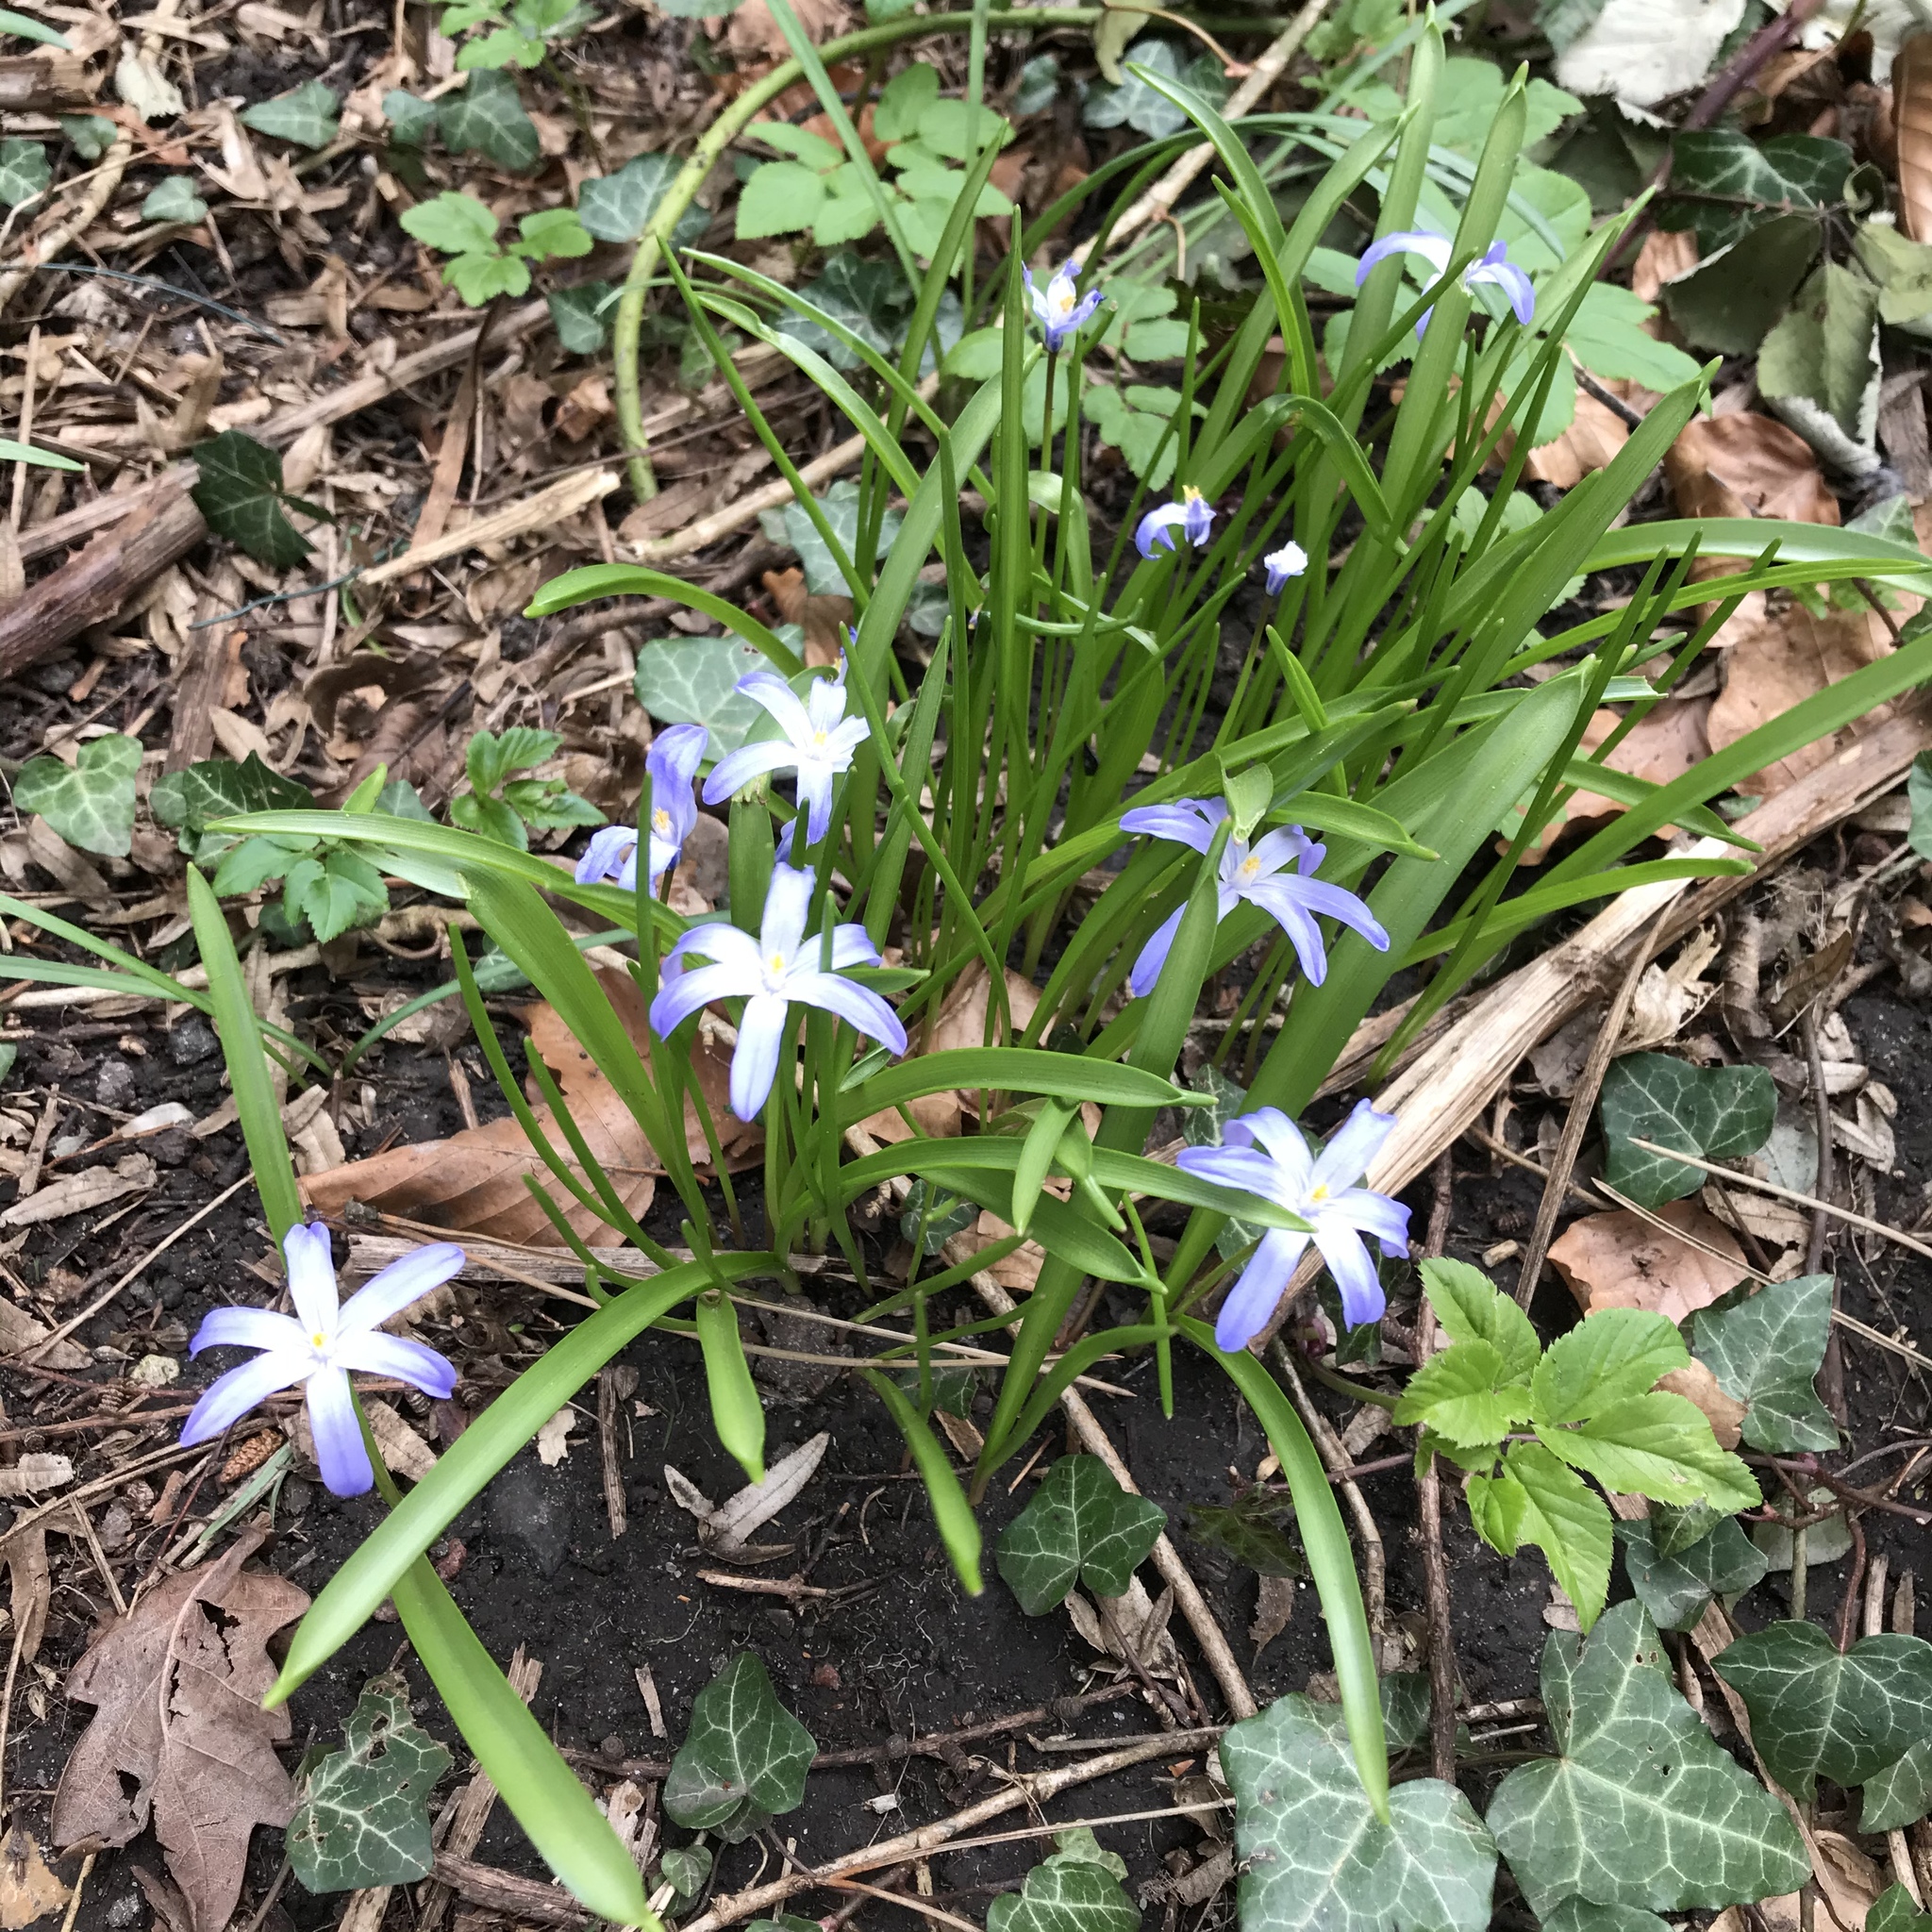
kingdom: Plantae
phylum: Tracheophyta
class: Liliopsida
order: Asparagales
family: Asparagaceae
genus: Scilla
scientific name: Scilla luciliae
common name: Boissier's glory-of-the-snow
